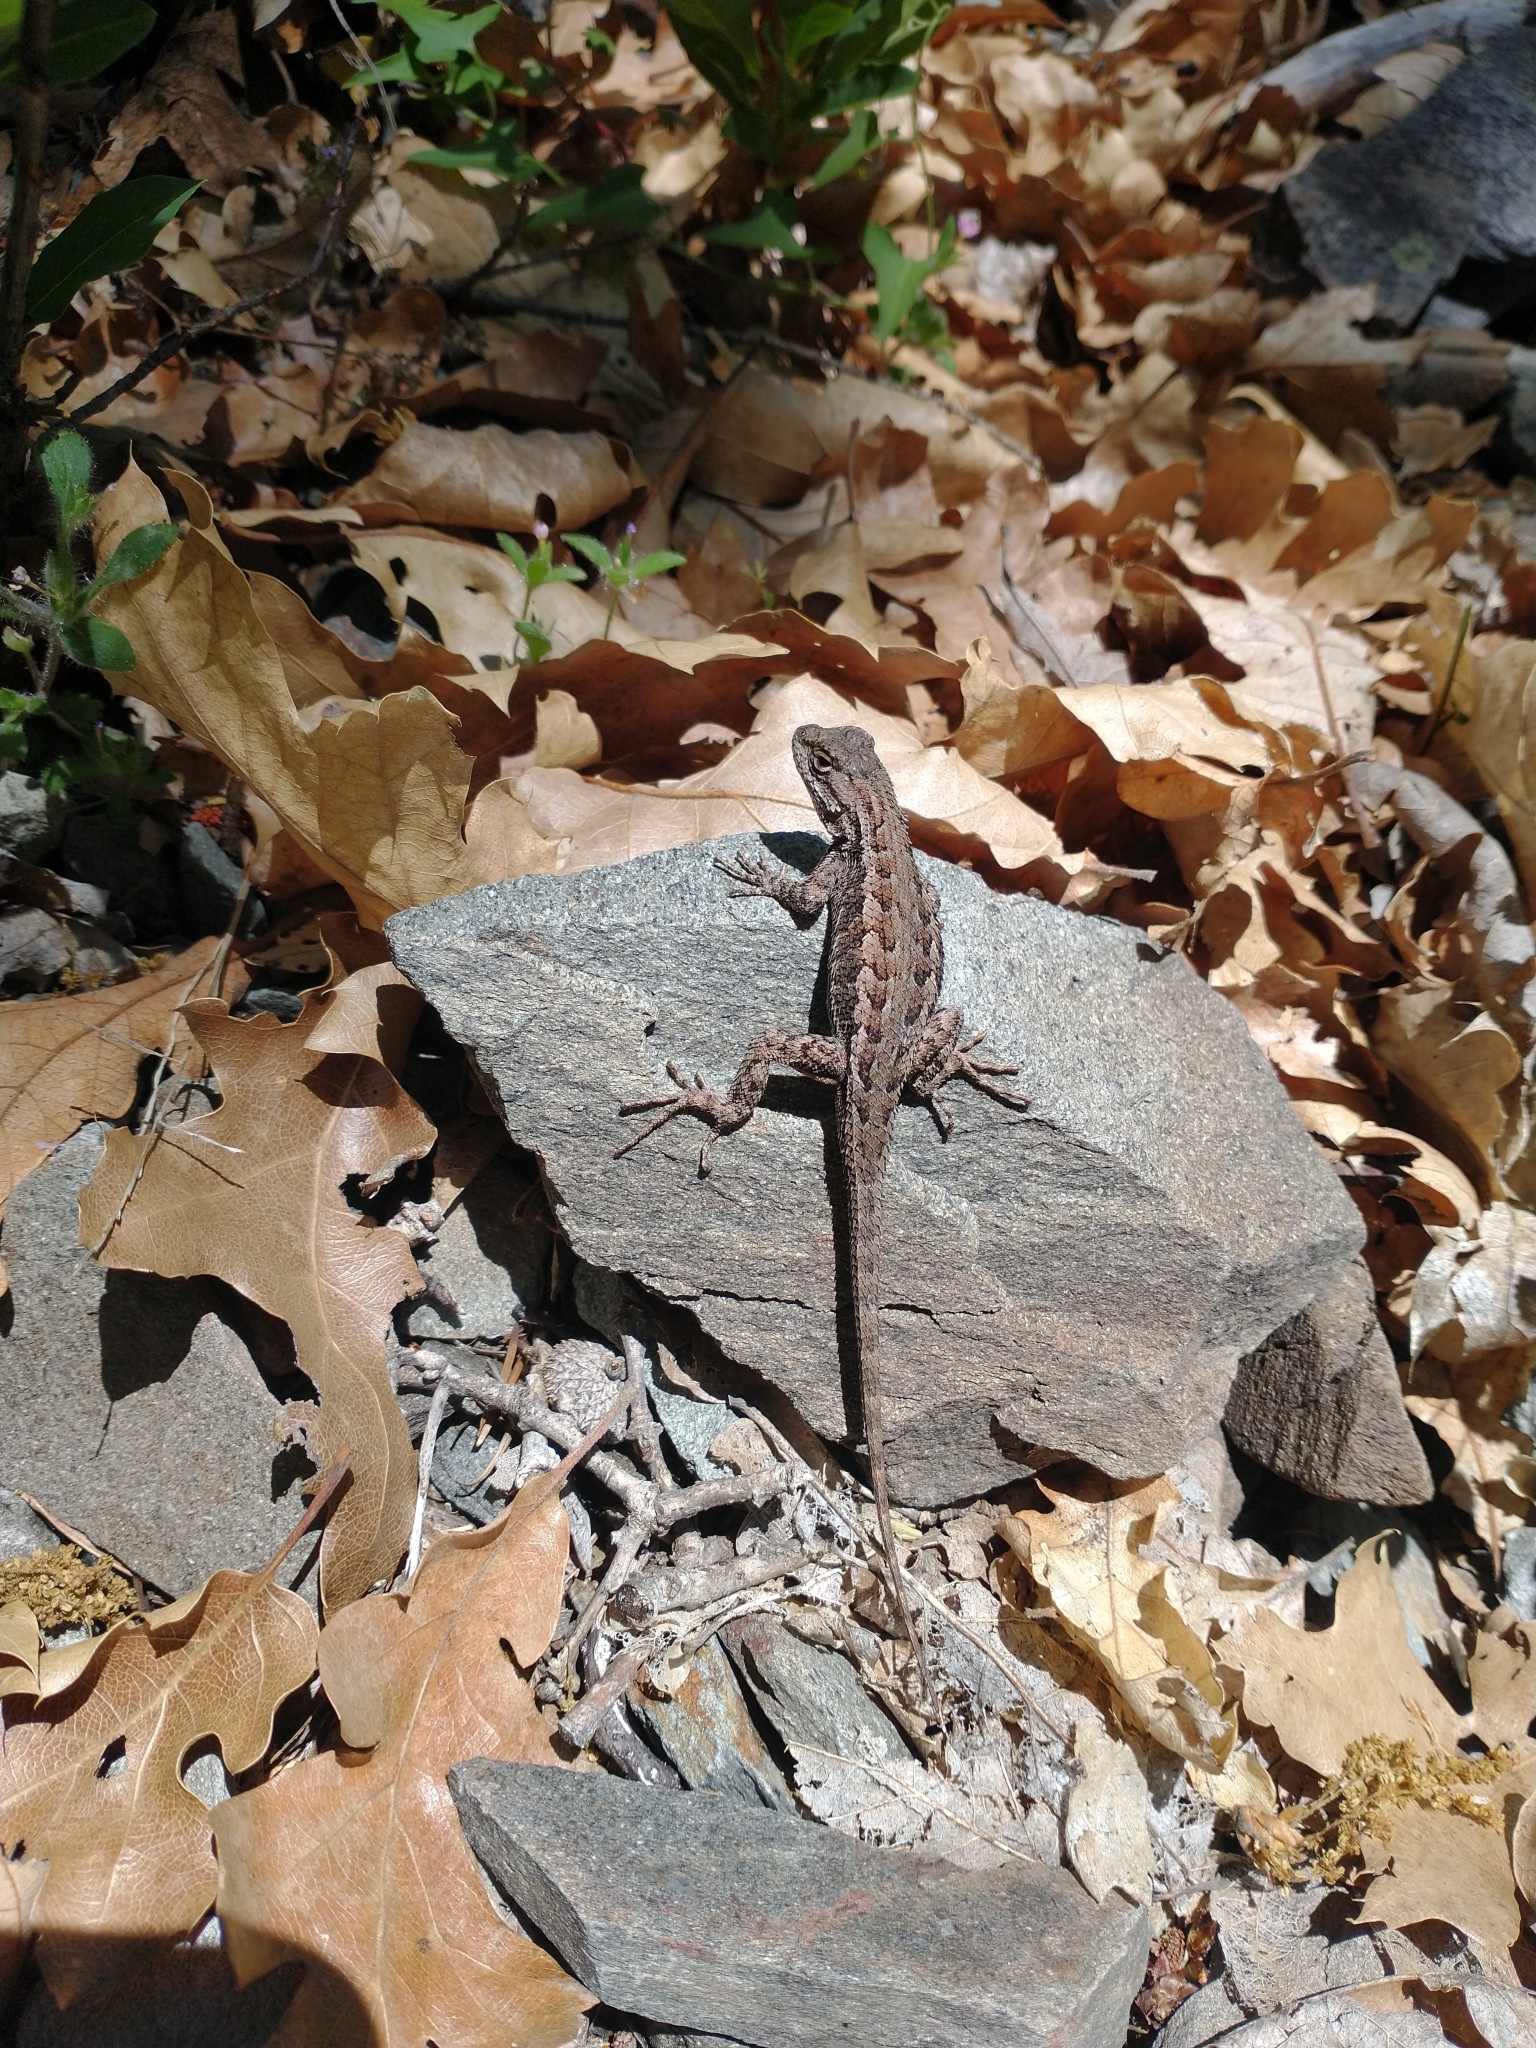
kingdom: Animalia
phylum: Chordata
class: Squamata
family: Phrynosomatidae
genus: Sceloporus
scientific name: Sceloporus occidentalis
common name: Western fence lizard
